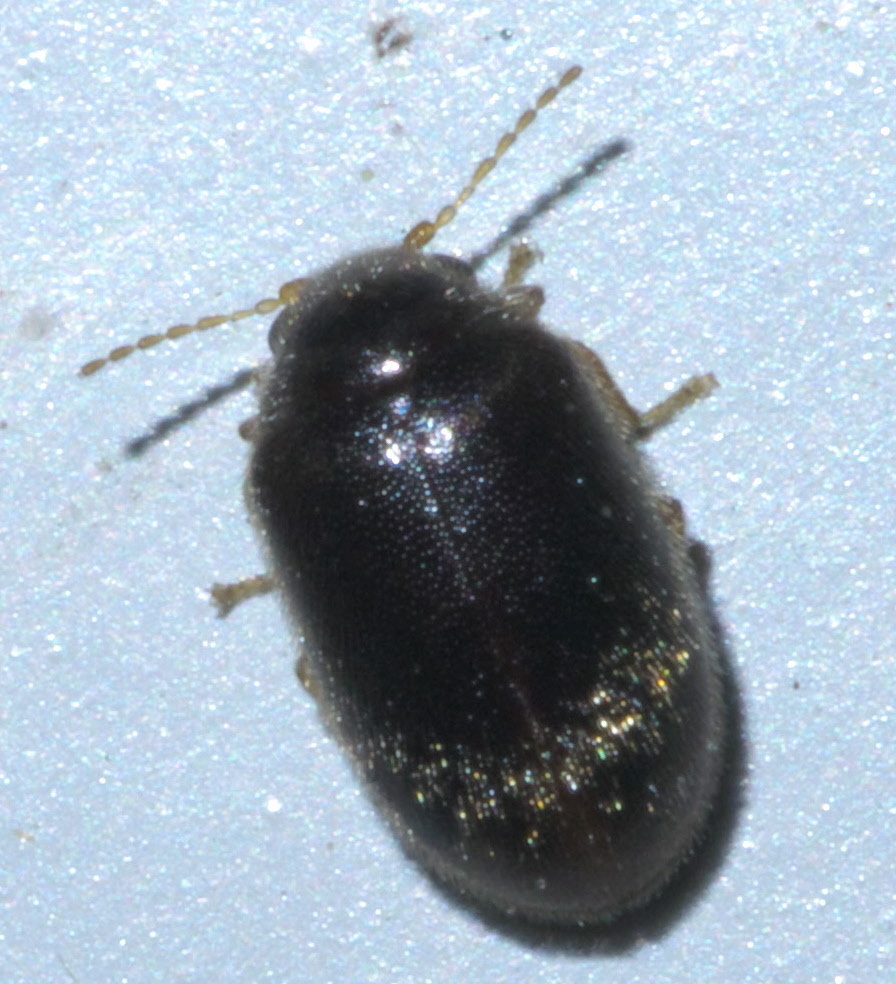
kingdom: Animalia
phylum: Arthropoda
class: Insecta
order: Coleoptera
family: Scirtidae
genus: Contacyphon
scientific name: Contacyphon
